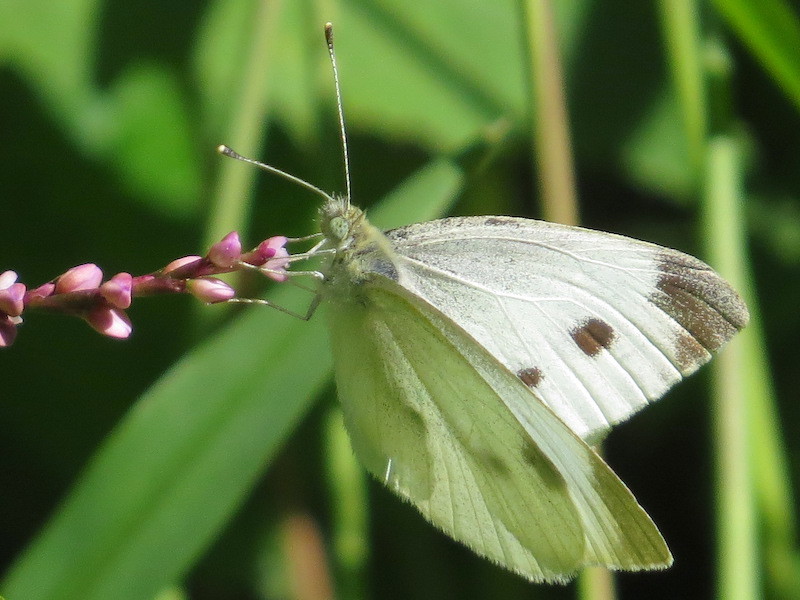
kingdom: Animalia
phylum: Arthropoda
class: Insecta
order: Lepidoptera
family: Pieridae
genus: Pieris
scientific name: Pieris rapae
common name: Small white
